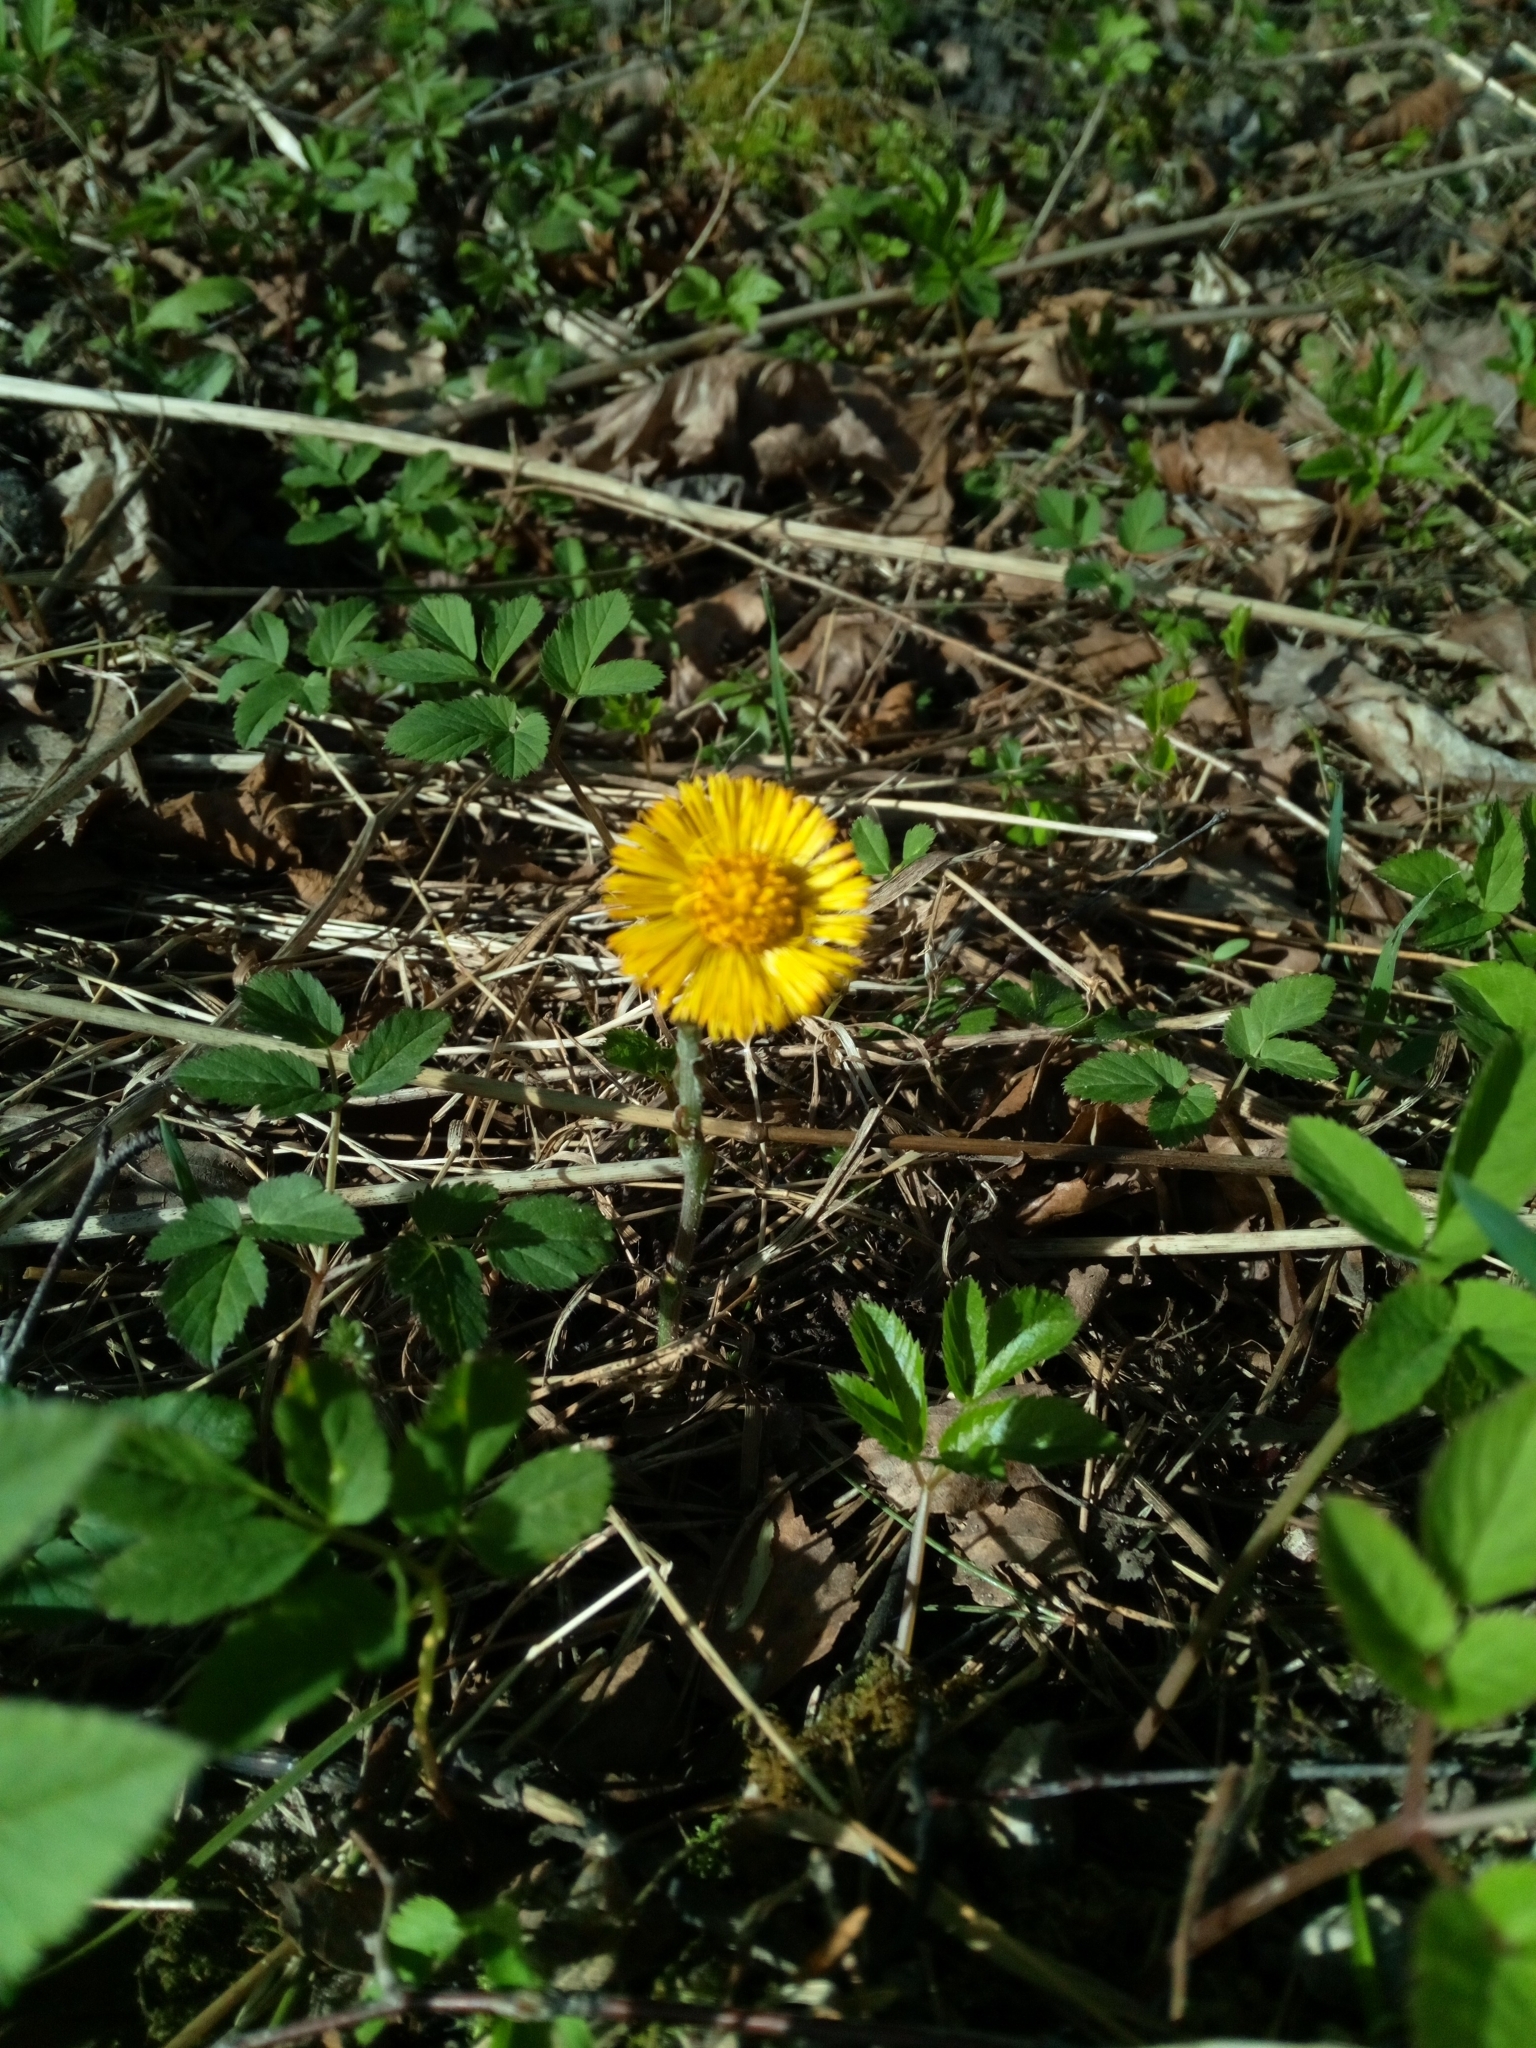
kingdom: Plantae
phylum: Tracheophyta
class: Magnoliopsida
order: Asterales
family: Asteraceae
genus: Tussilago
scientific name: Tussilago farfara
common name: Coltsfoot
